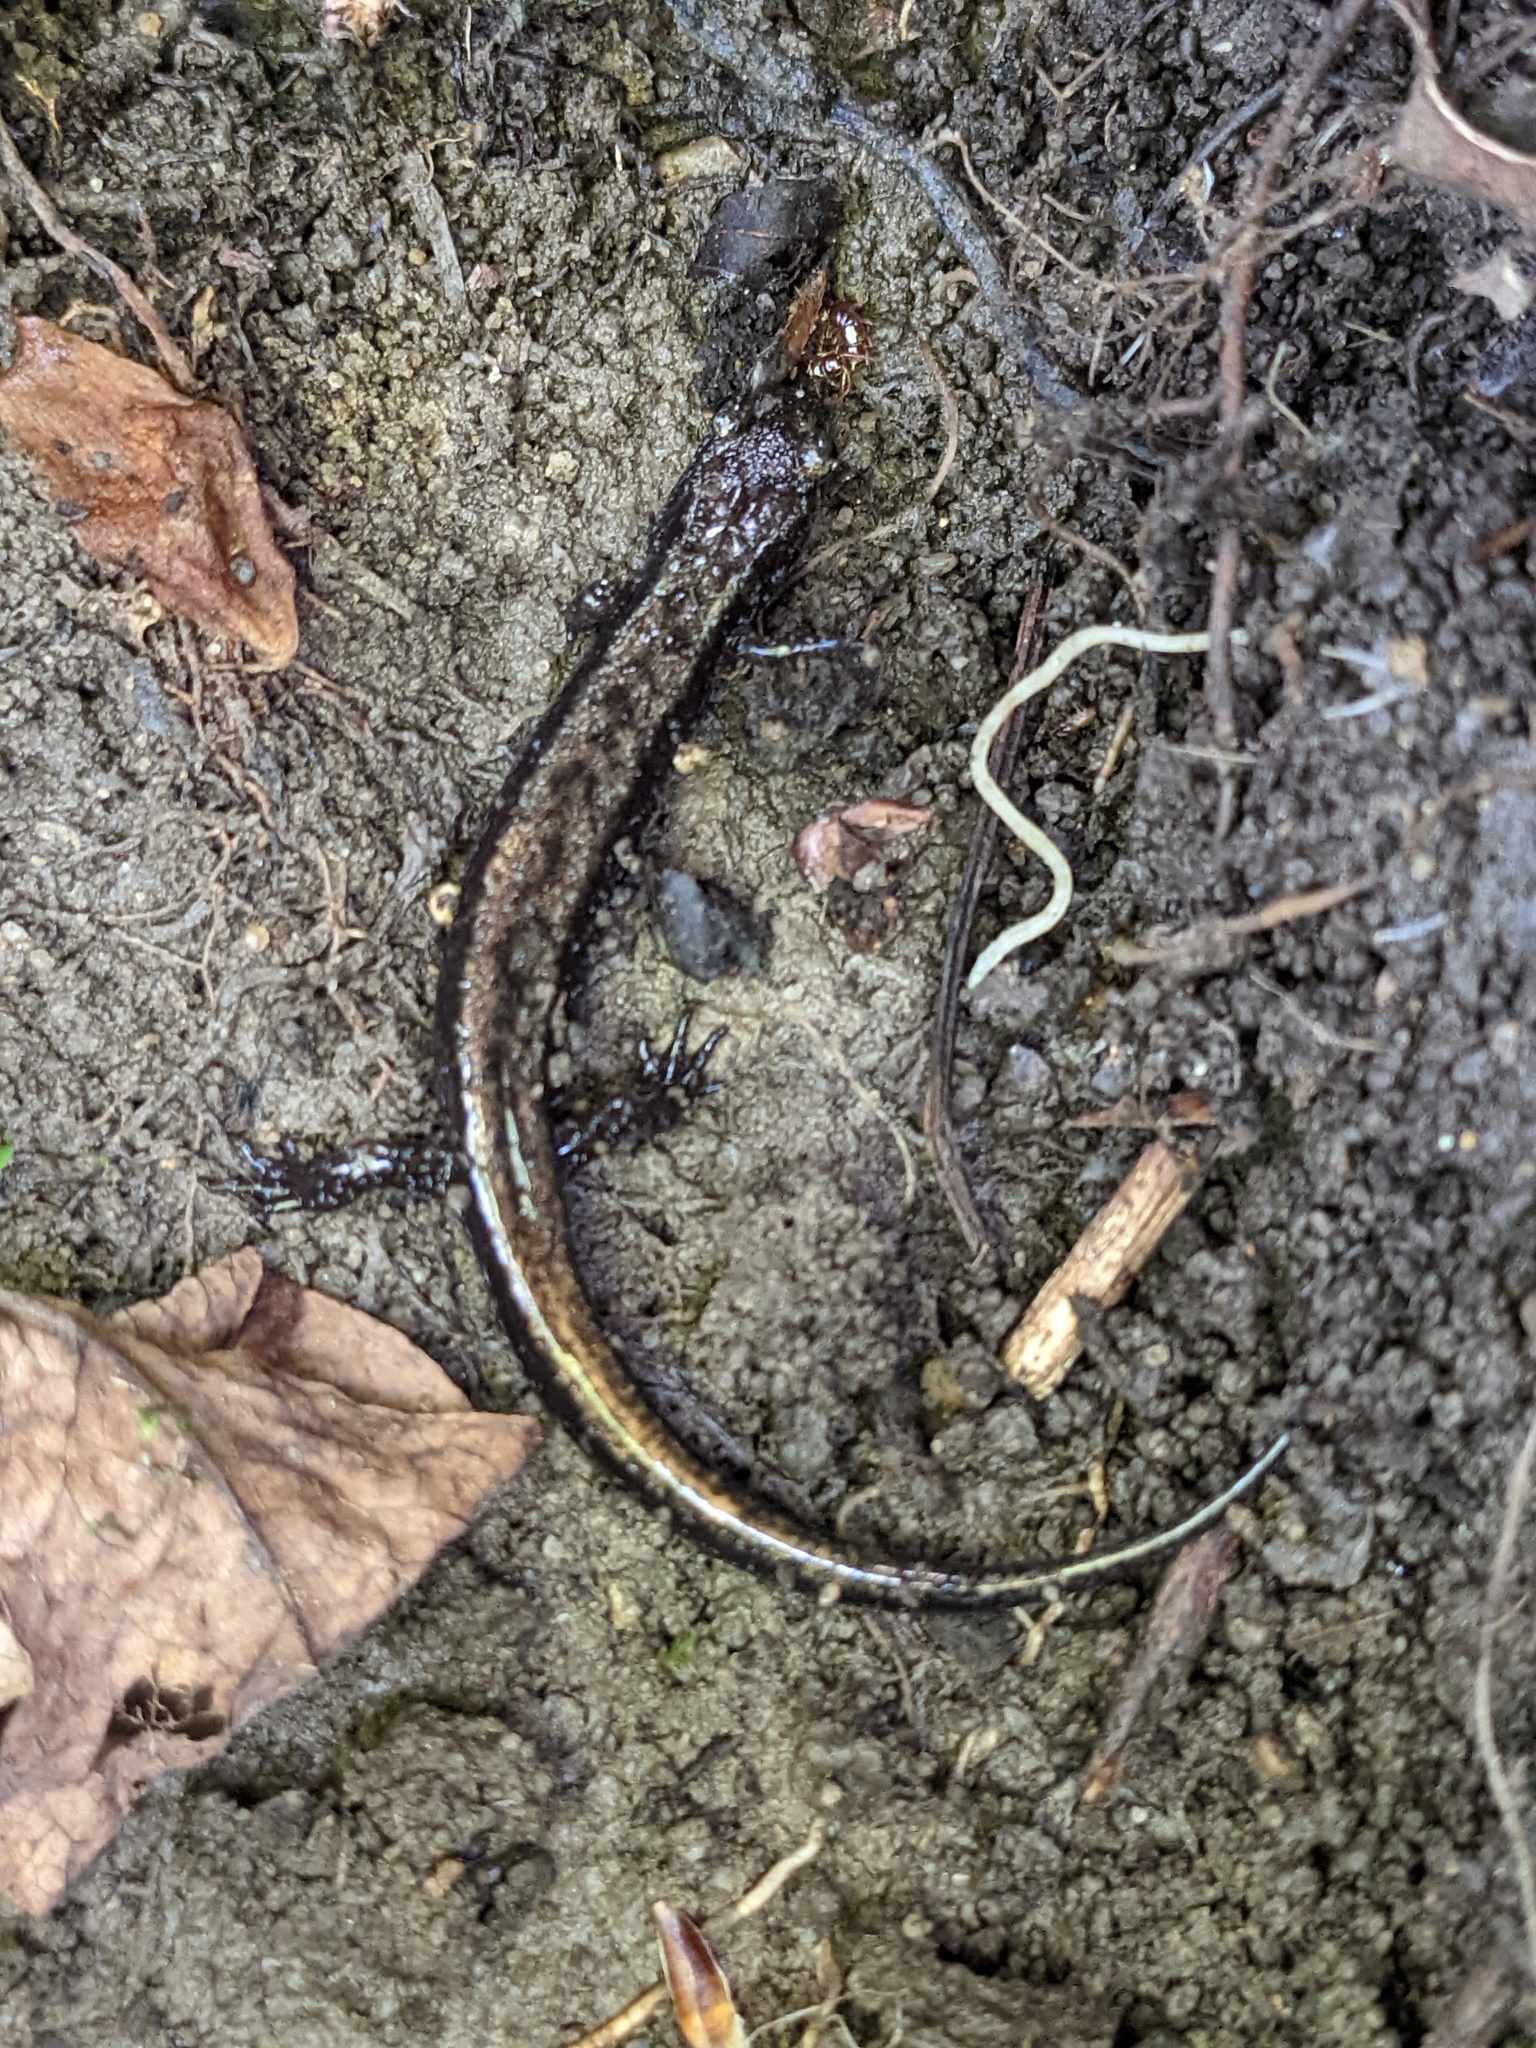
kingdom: Animalia
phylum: Chordata
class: Amphibia
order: Caudata
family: Plethodontidae
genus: Desmognathus
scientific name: Desmognathus ochrophaeus
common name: Allegheny mountain dusky salamander
